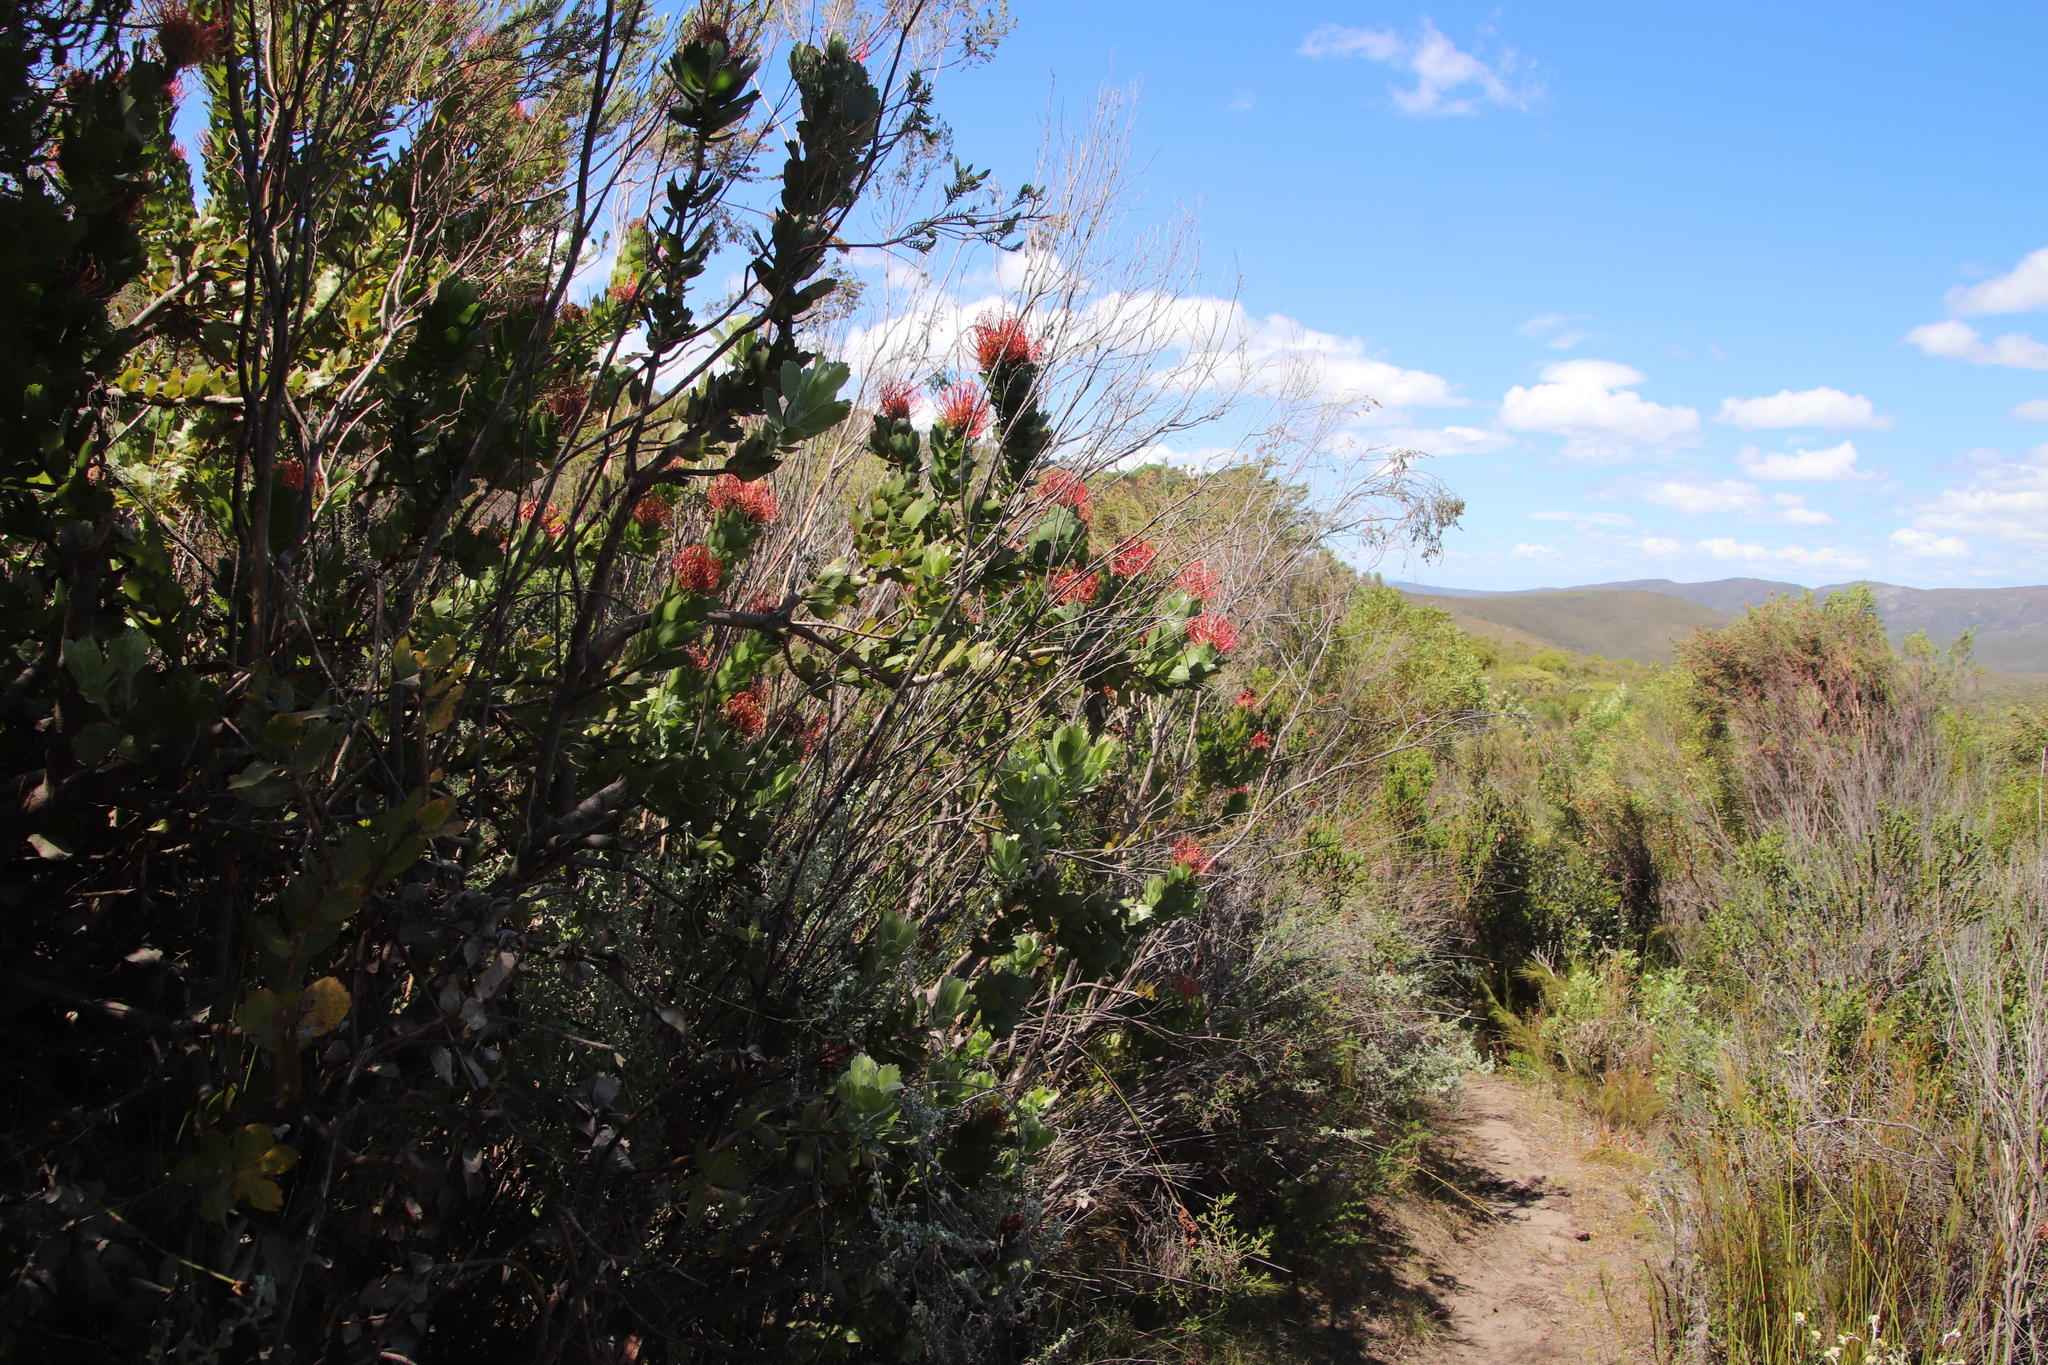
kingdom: Plantae
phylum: Tracheophyta
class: Magnoliopsida
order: Proteales
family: Proteaceae
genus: Leucospermum
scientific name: Leucospermum patersonii
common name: False tree pincushion
